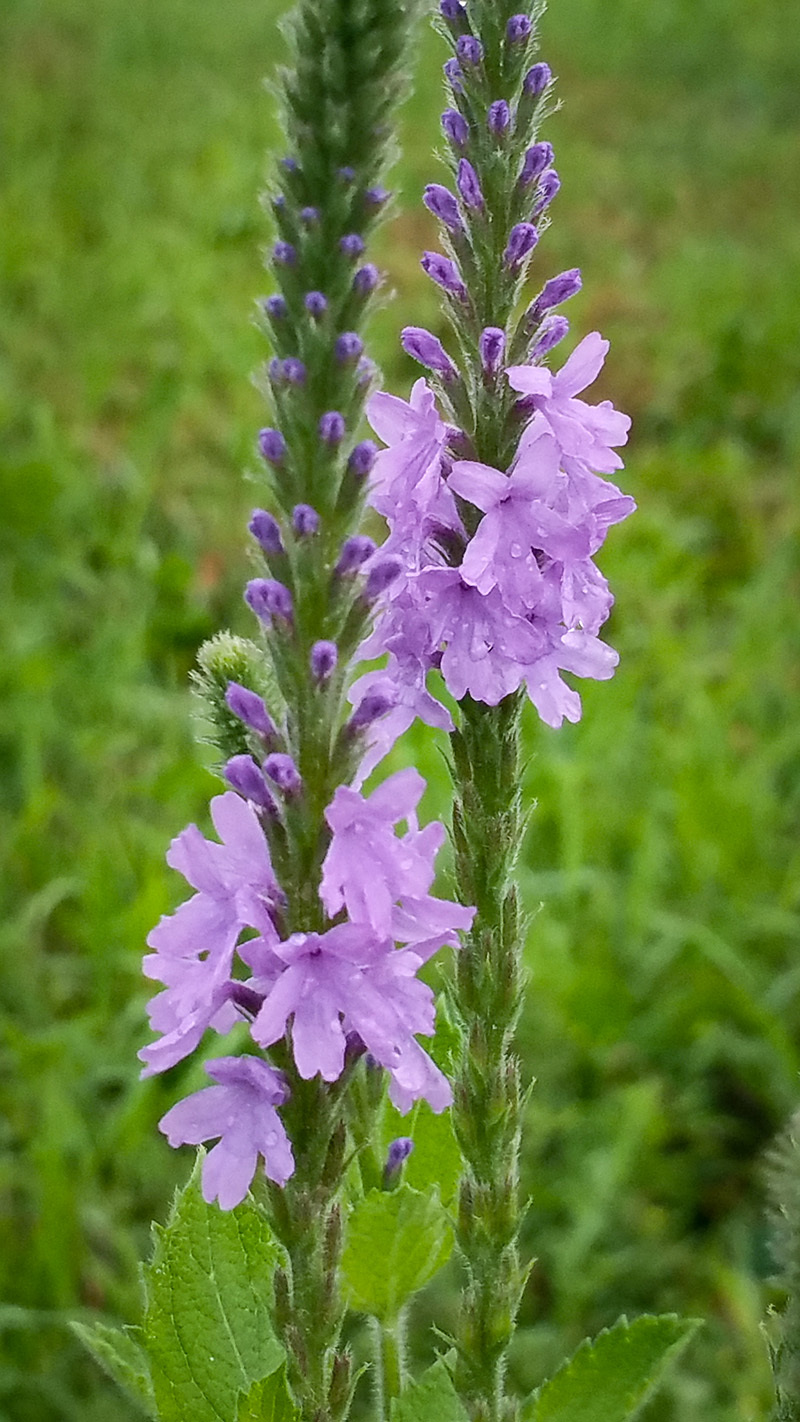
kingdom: Plantae
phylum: Tracheophyta
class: Magnoliopsida
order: Lamiales
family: Verbenaceae
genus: Verbena
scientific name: Verbena stricta
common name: Hoary vervain
